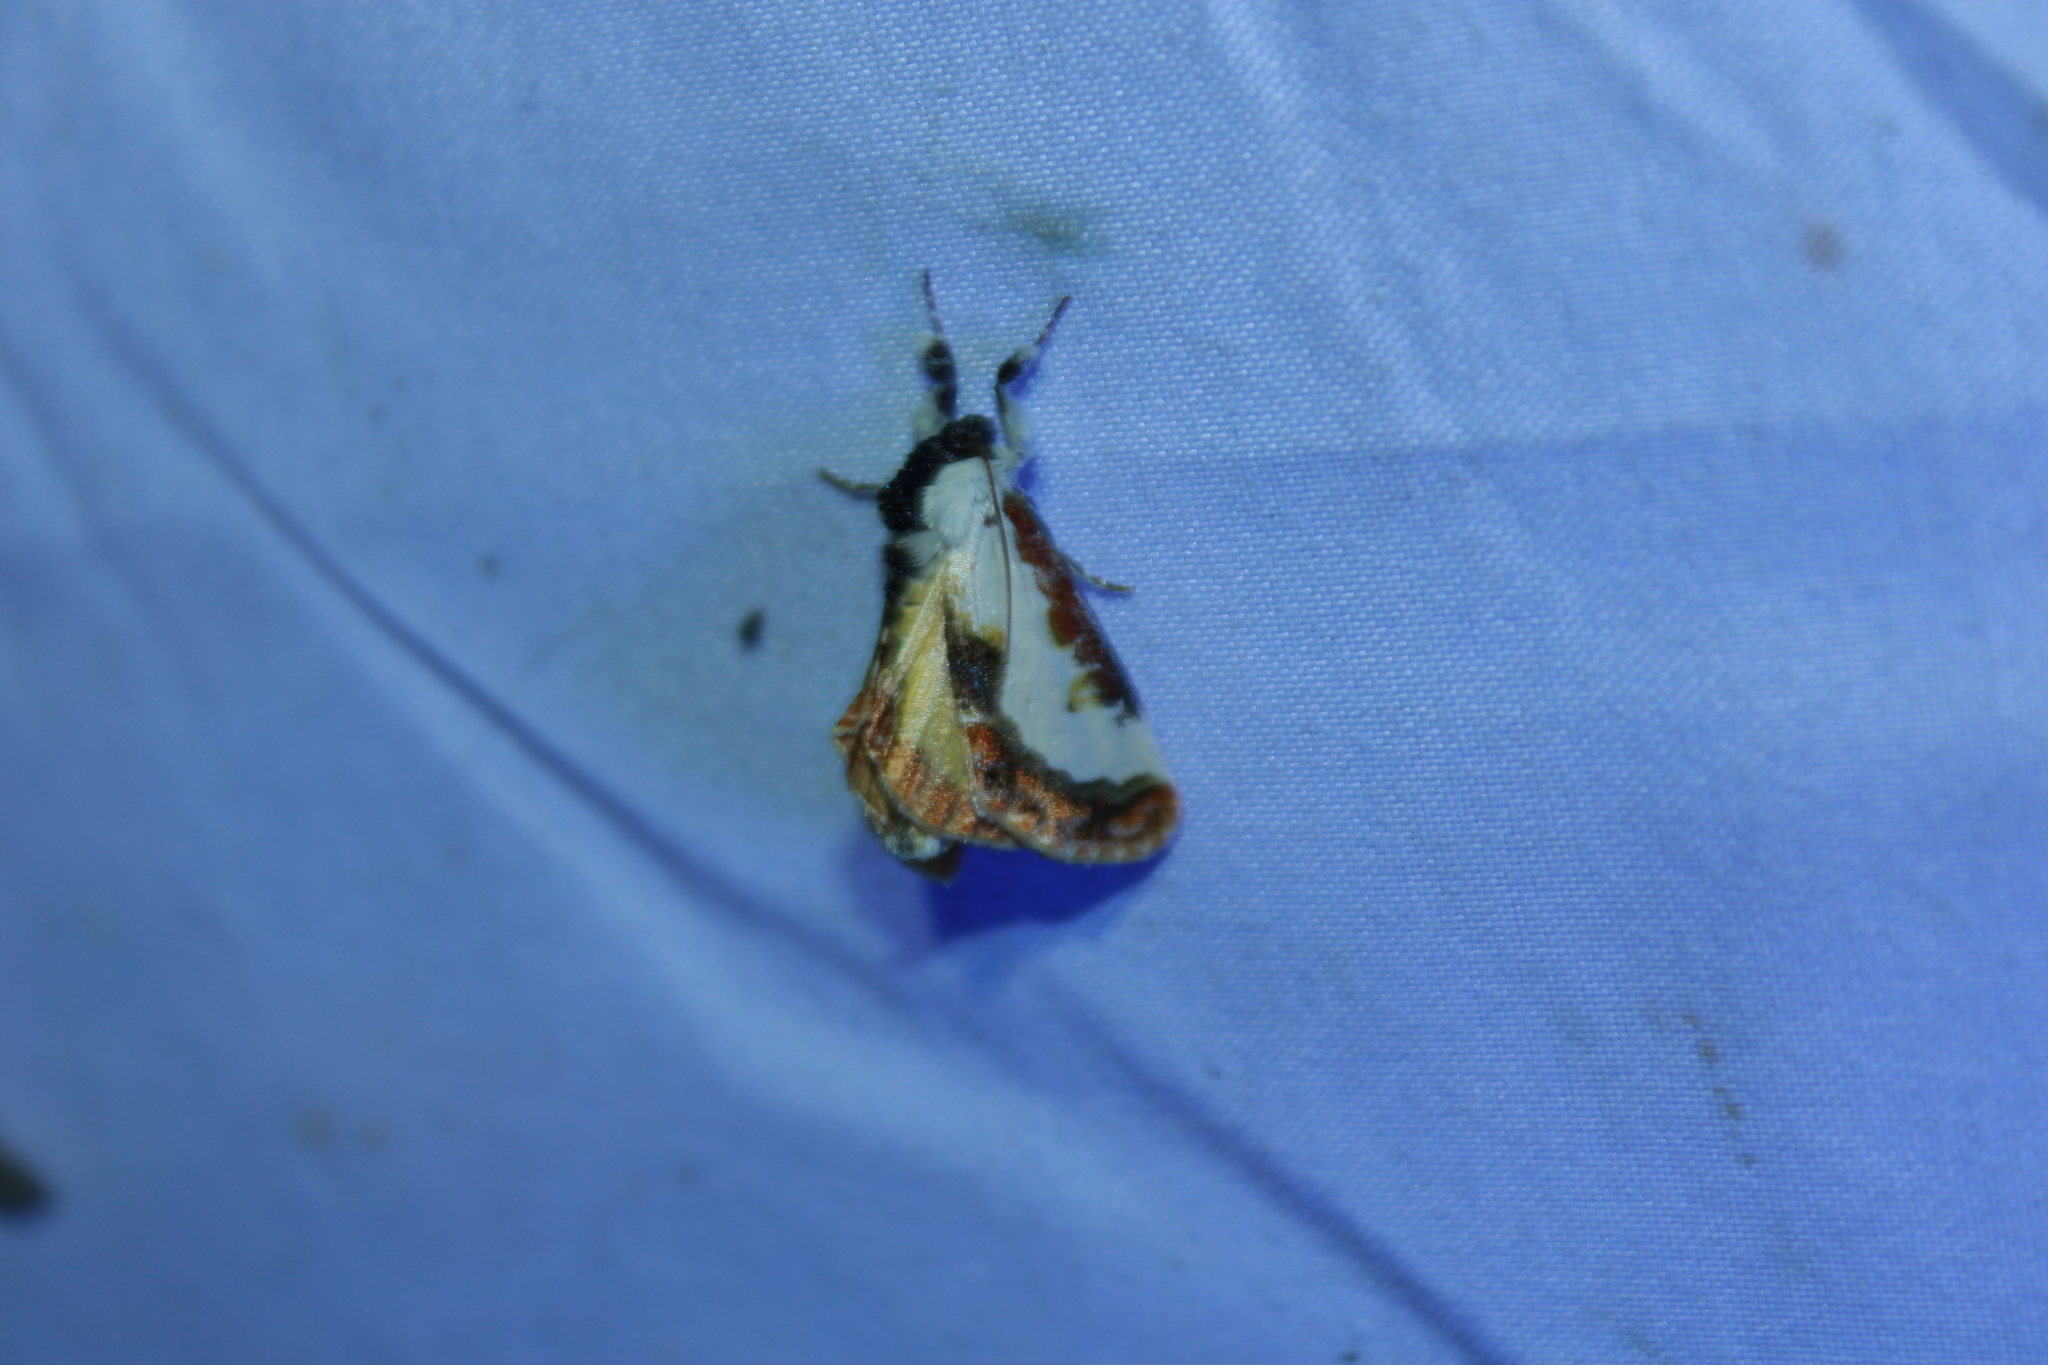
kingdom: Animalia
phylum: Arthropoda
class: Insecta
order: Lepidoptera
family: Noctuidae
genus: Eudryas
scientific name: Eudryas unio
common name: Pearly wood-nymph
